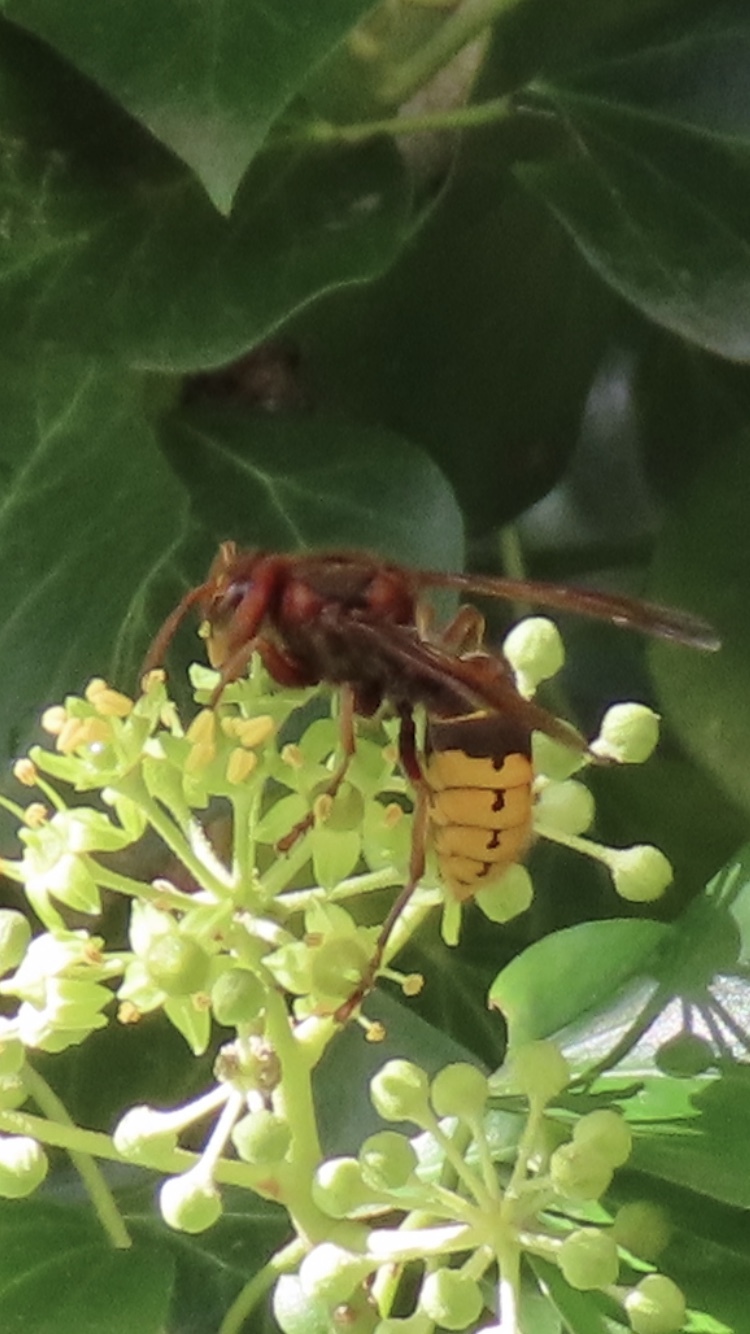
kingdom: Animalia
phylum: Arthropoda
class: Insecta
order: Hymenoptera
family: Vespidae
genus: Vespa
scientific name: Vespa crabro
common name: Hornet
